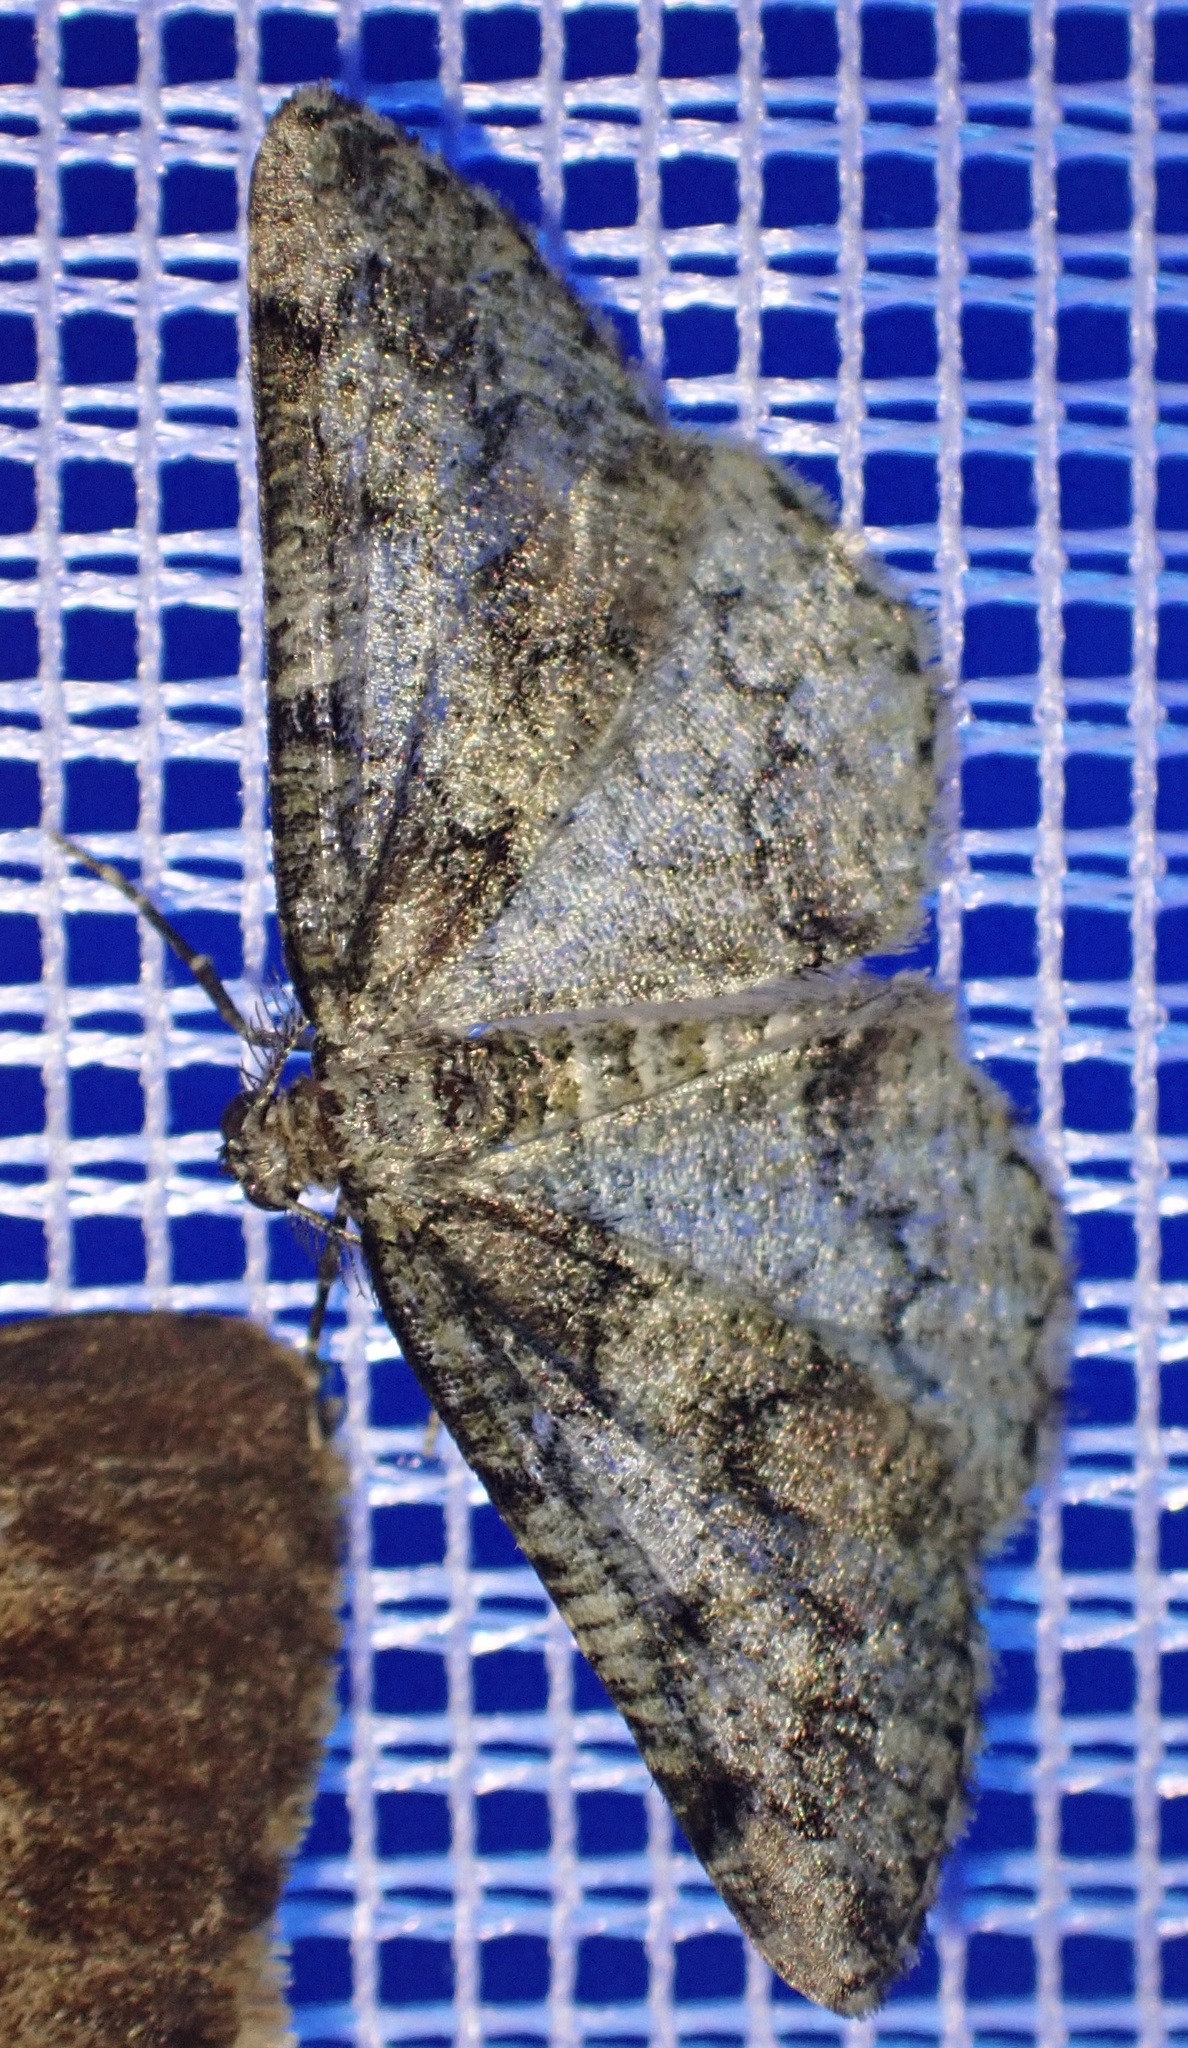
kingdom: Animalia
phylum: Arthropoda
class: Insecta
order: Lepidoptera
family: Geometridae
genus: Cleorodes
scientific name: Cleorodes lichenaria
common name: Brussels lace
